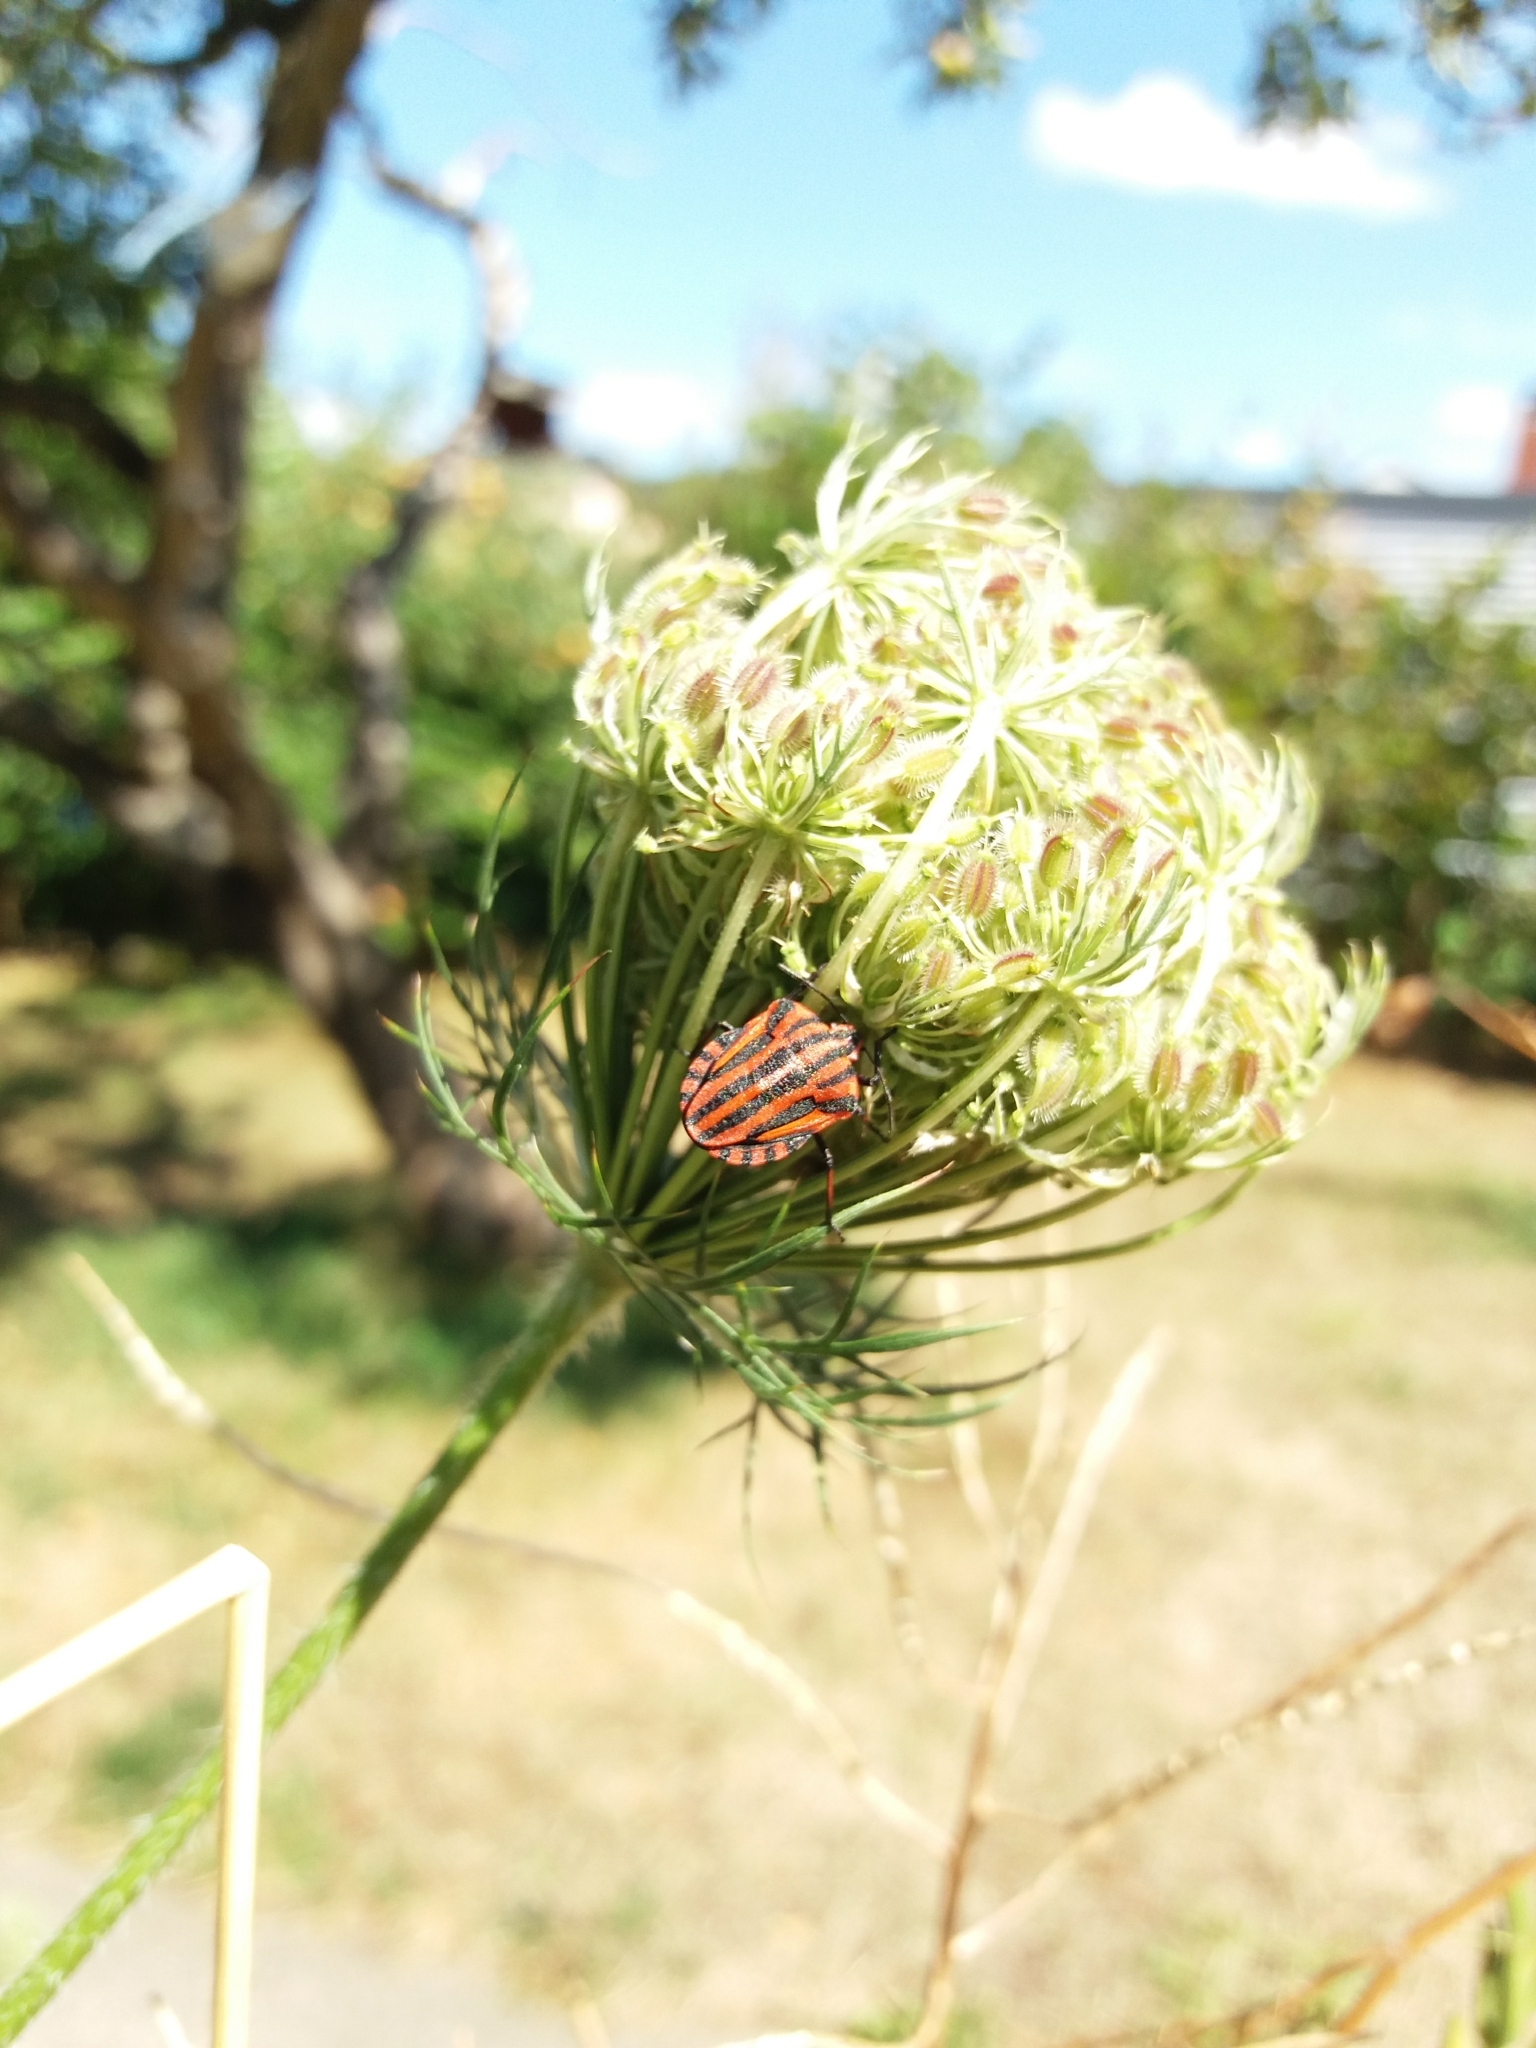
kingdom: Animalia
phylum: Arthropoda
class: Insecta
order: Hemiptera
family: Pentatomidae
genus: Graphosoma
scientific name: Graphosoma italicum
